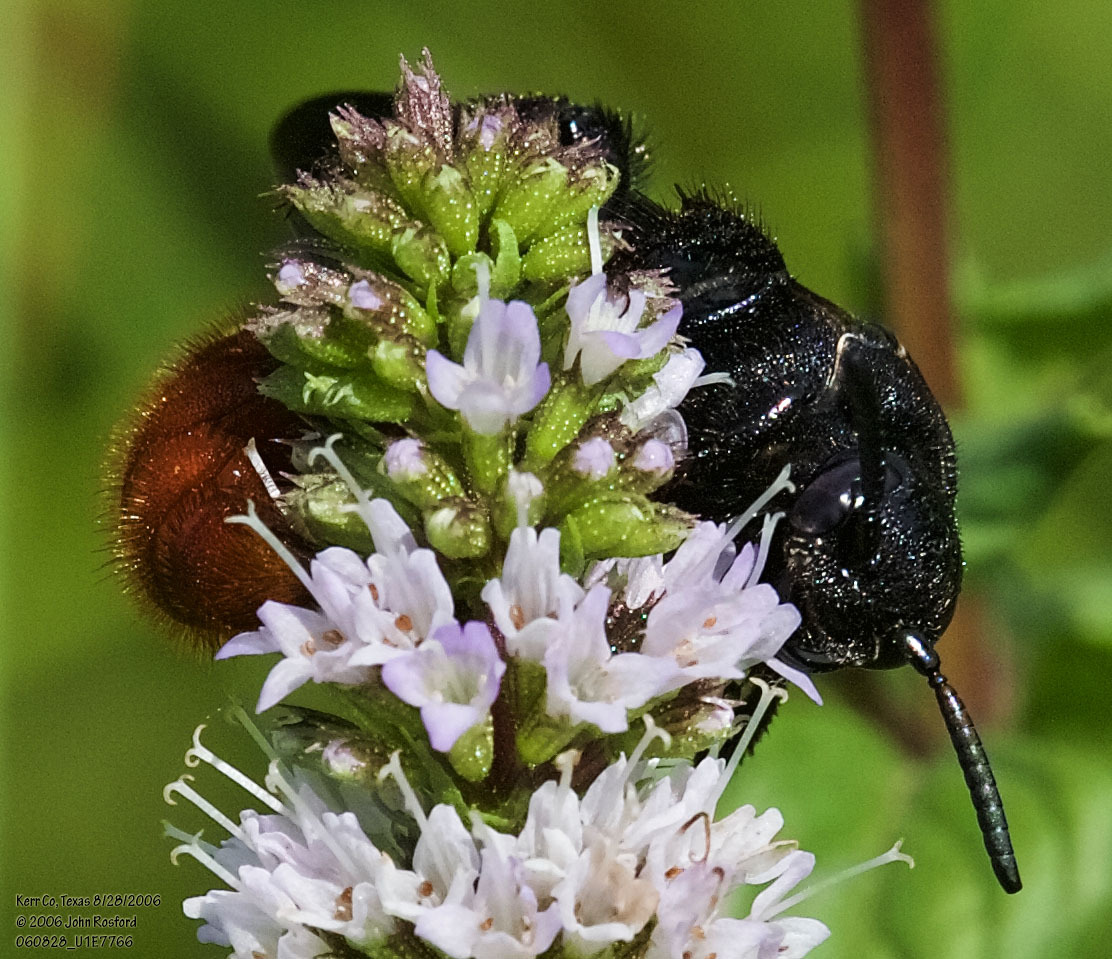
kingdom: Animalia
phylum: Arthropoda
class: Insecta
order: Hymenoptera
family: Scoliidae
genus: Scolia
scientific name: Scolia dubia
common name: Blue-winged scoliid wasp
